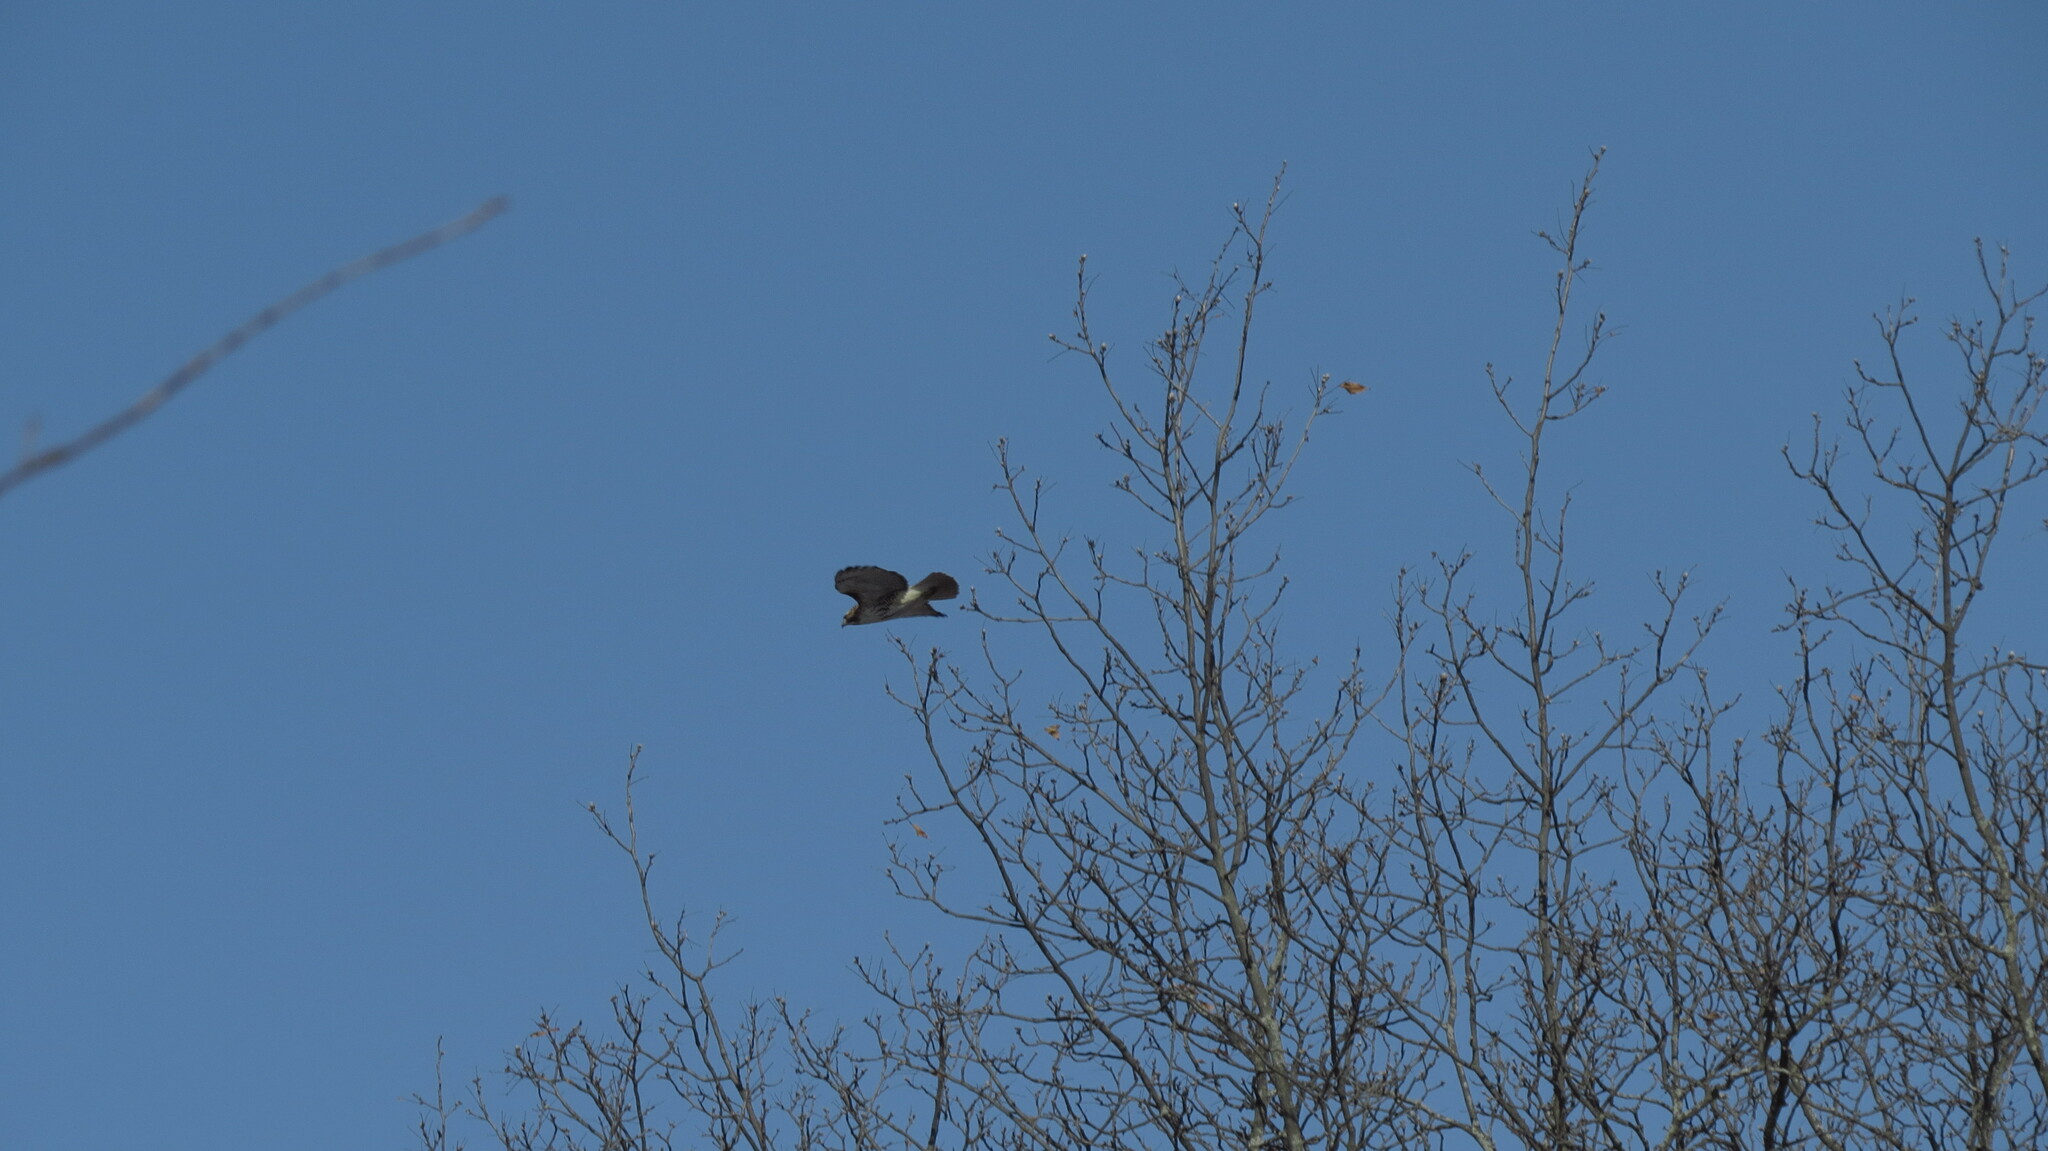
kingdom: Animalia
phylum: Chordata
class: Aves
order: Accipitriformes
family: Accipitridae
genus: Buteo
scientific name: Buteo jamaicensis
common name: Red-tailed hawk
